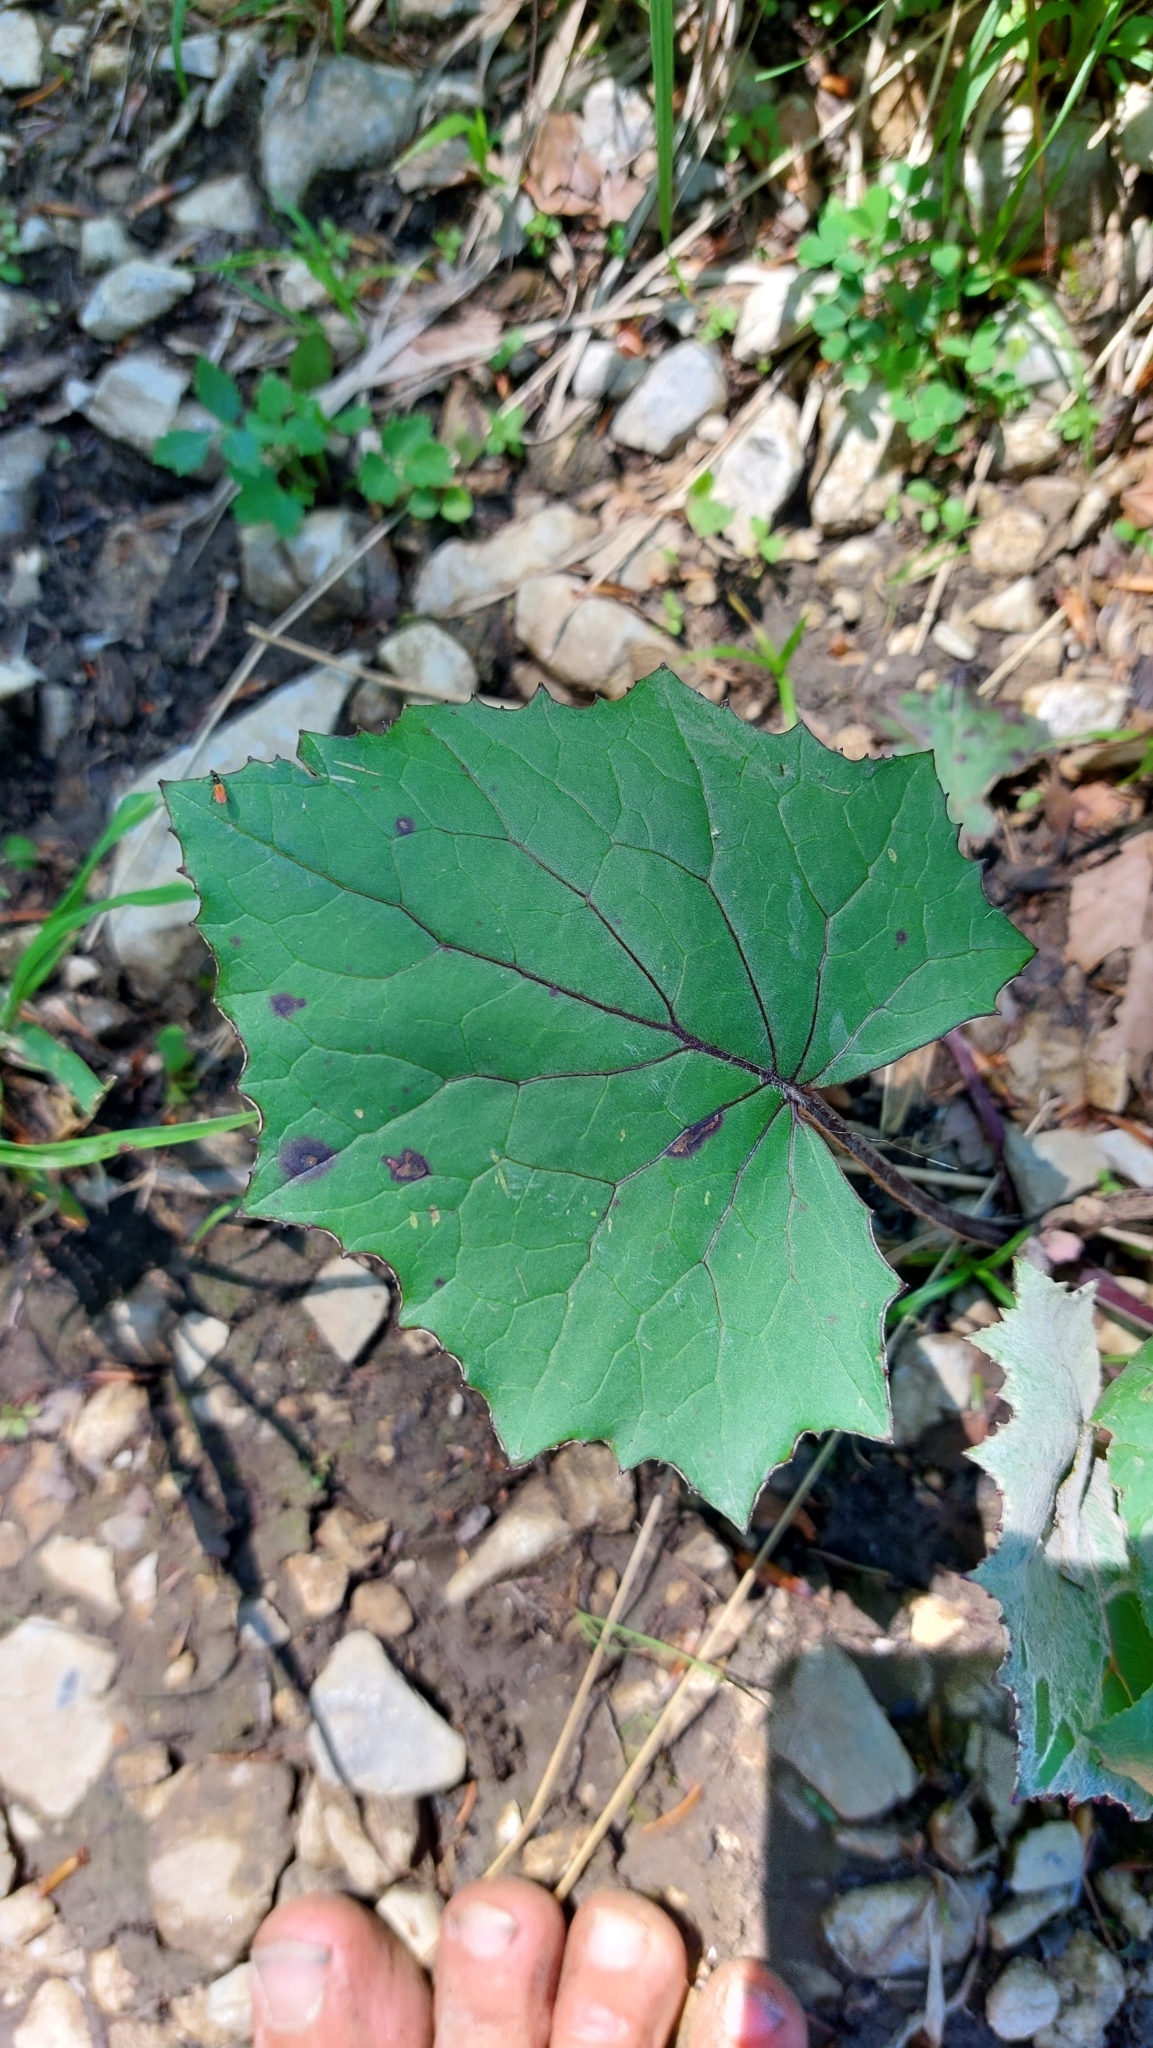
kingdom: Plantae
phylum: Tracheophyta
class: Magnoliopsida
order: Asterales
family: Asteraceae
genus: Tussilago
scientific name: Tussilago farfara
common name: Coltsfoot
